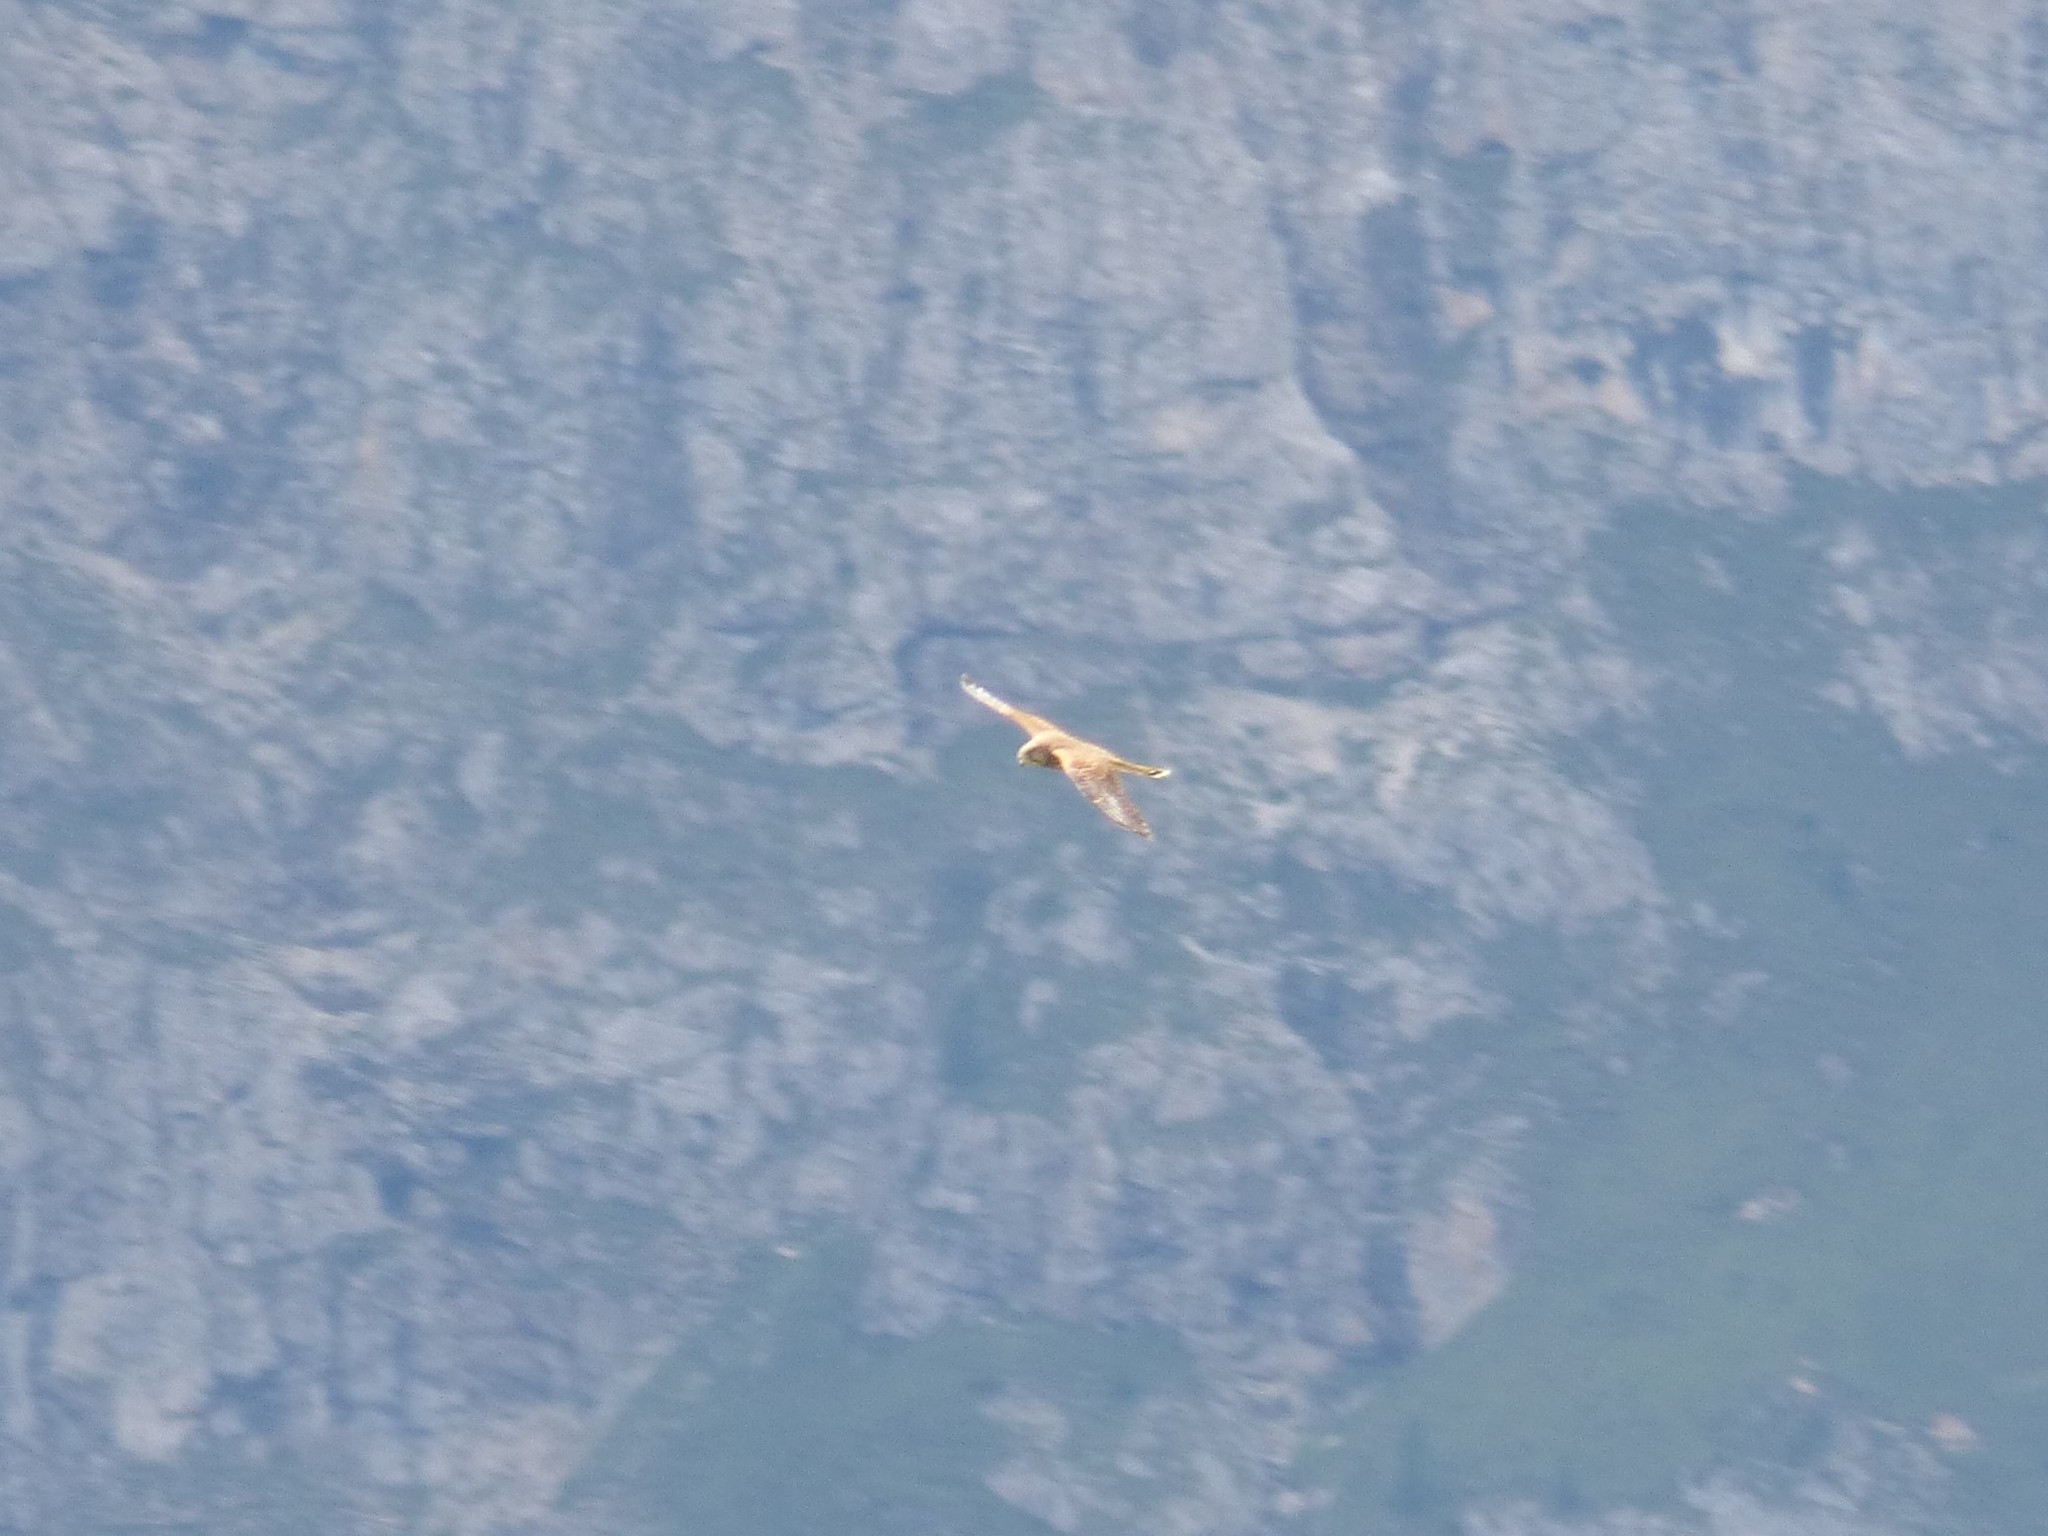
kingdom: Animalia
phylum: Chordata
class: Aves
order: Falconiformes
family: Falconidae
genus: Falco
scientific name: Falco tinnunculus
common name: Common kestrel
